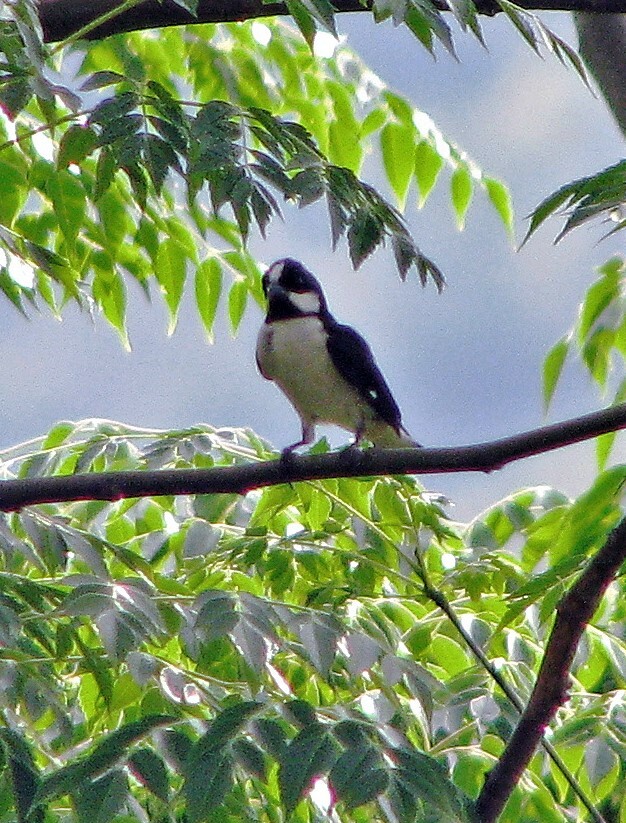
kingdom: Animalia
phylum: Chordata
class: Aves
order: Passeriformes
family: Thraupidae
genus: Sporophila
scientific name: Sporophila lineola
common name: Lined seedeater
